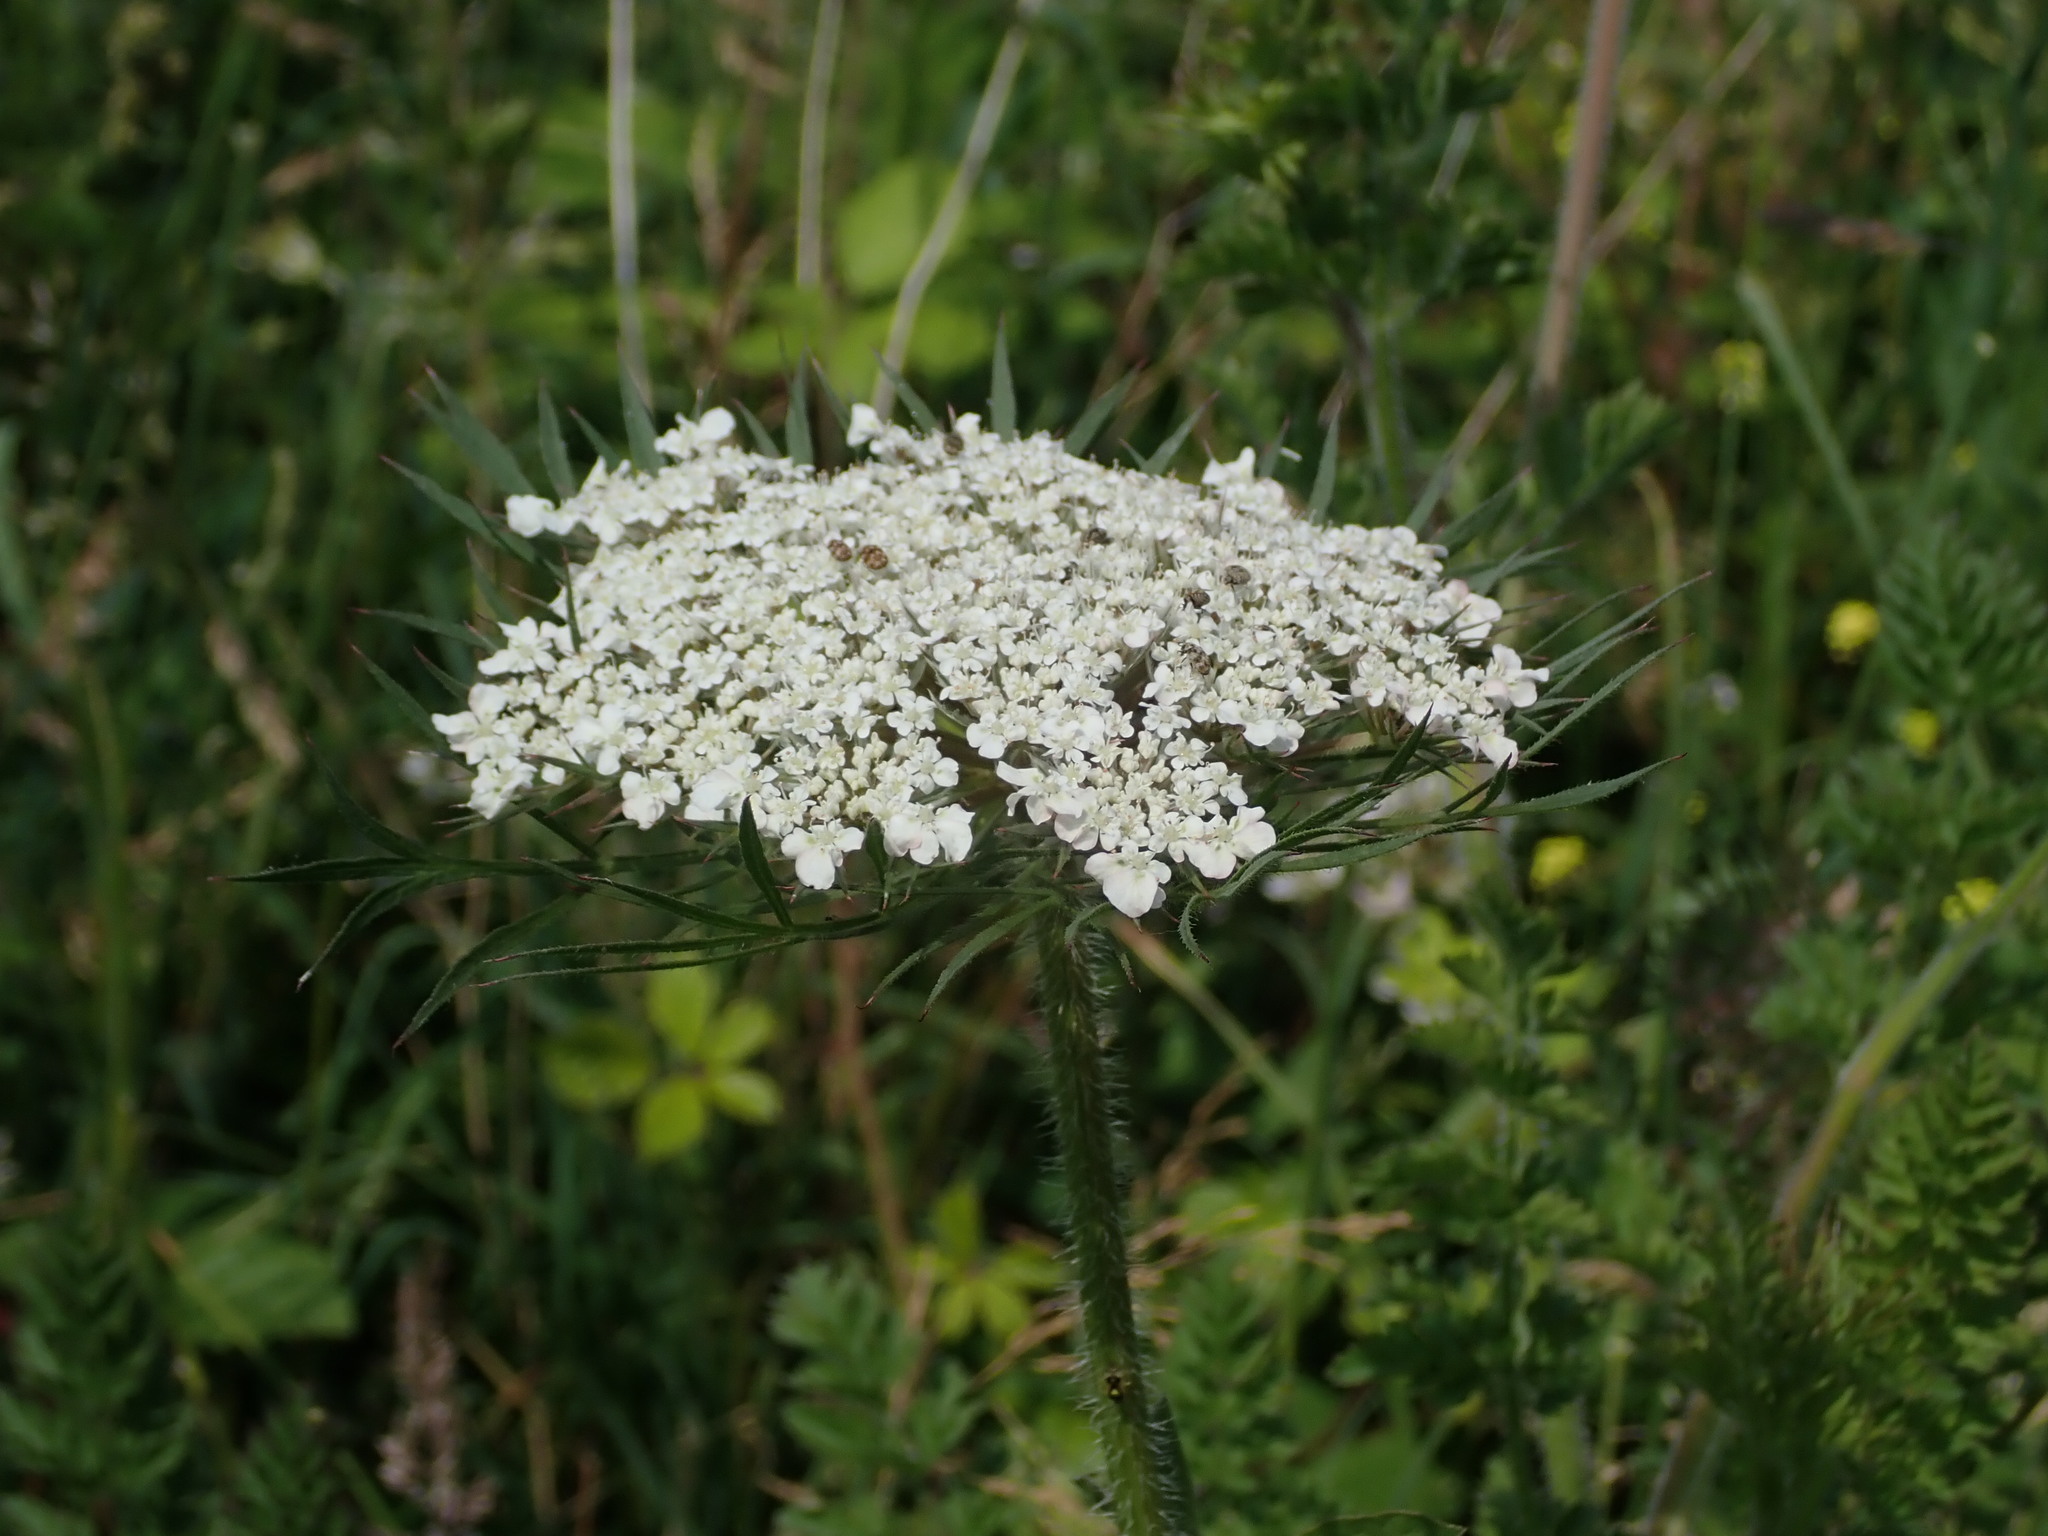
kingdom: Plantae
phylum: Tracheophyta
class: Magnoliopsida
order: Apiales
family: Apiaceae
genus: Daucus
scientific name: Daucus carota
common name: Wild carrot
